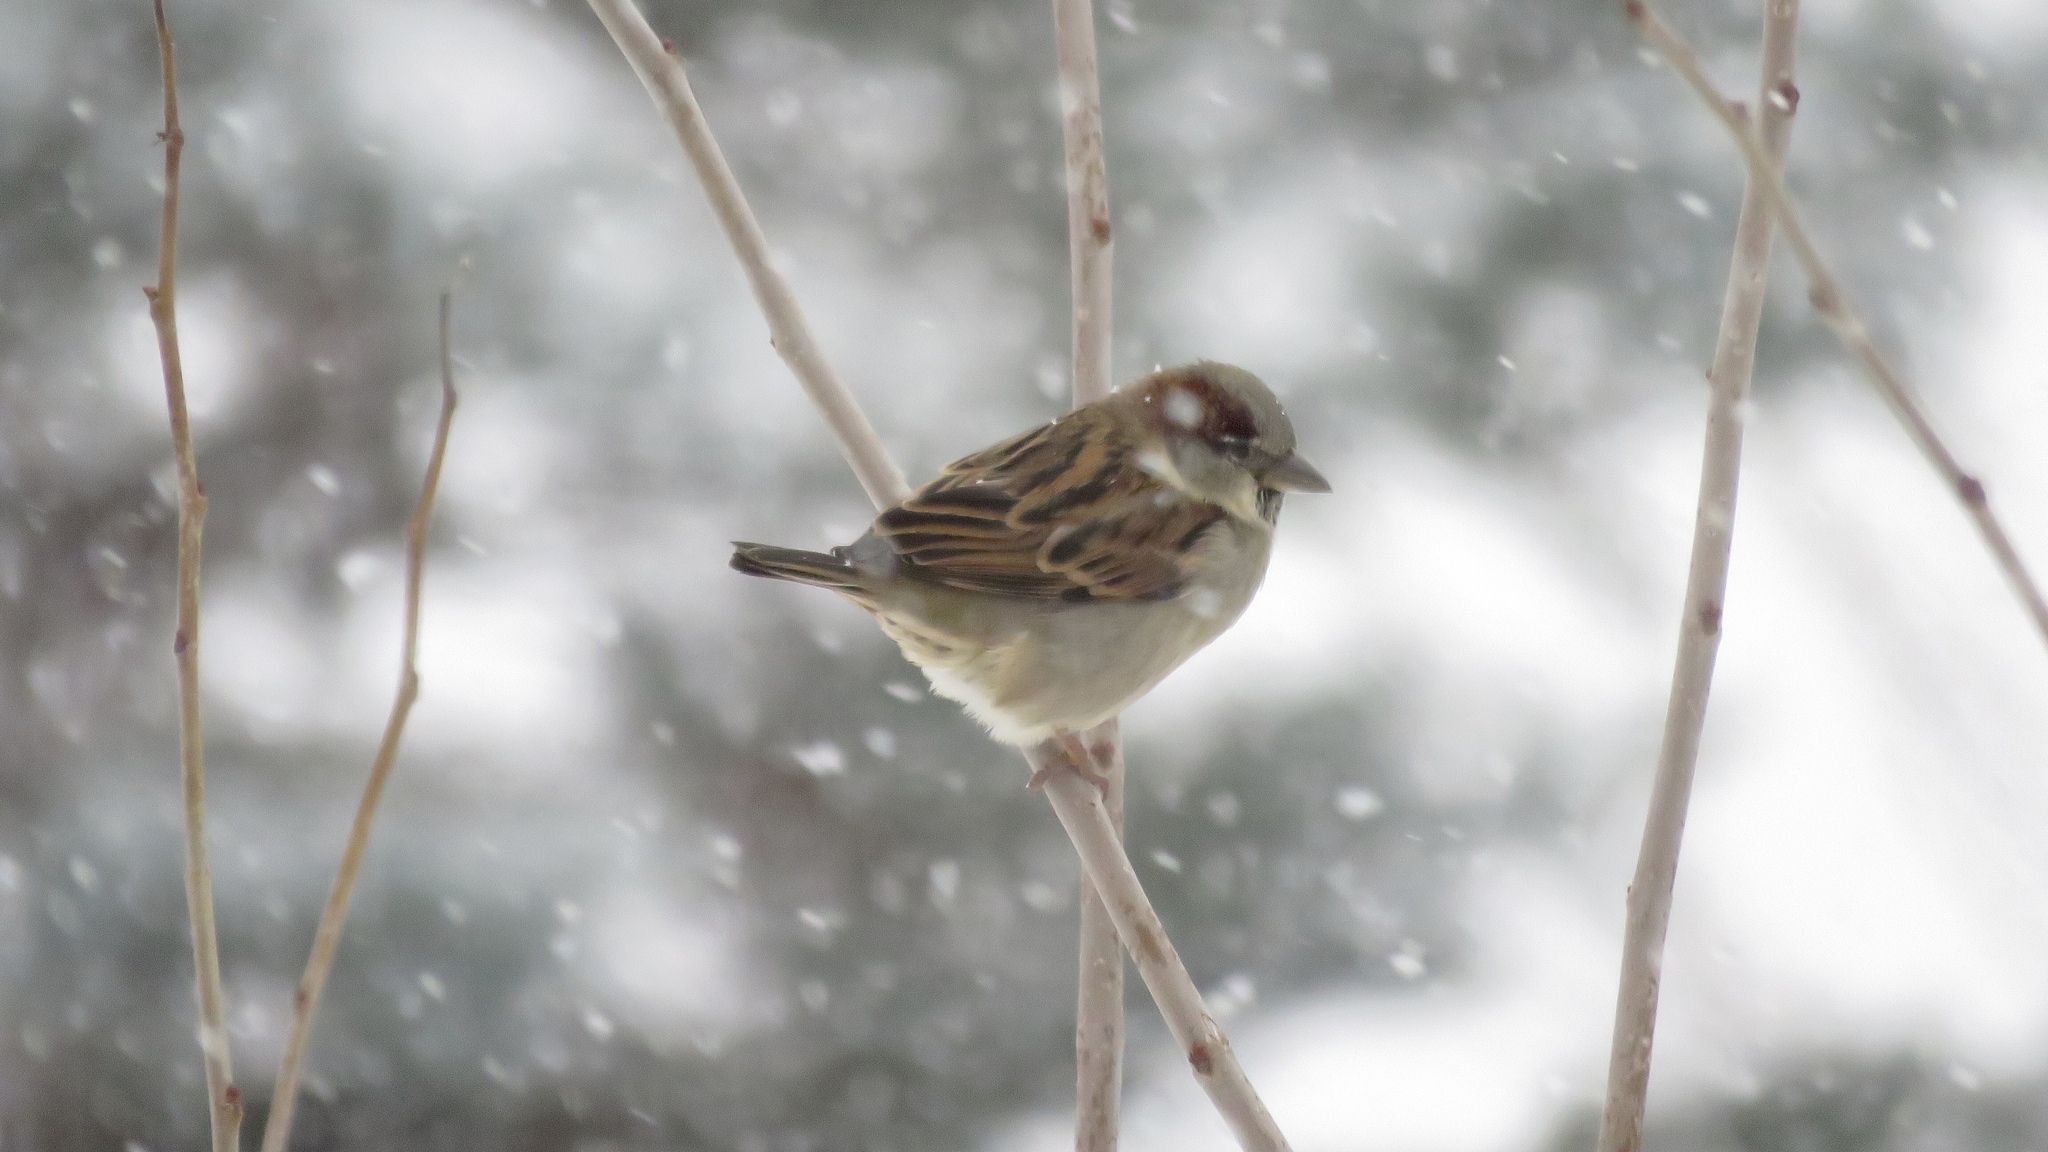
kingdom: Animalia
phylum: Chordata
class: Aves
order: Passeriformes
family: Passeridae
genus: Passer
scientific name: Passer domesticus
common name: House sparrow
